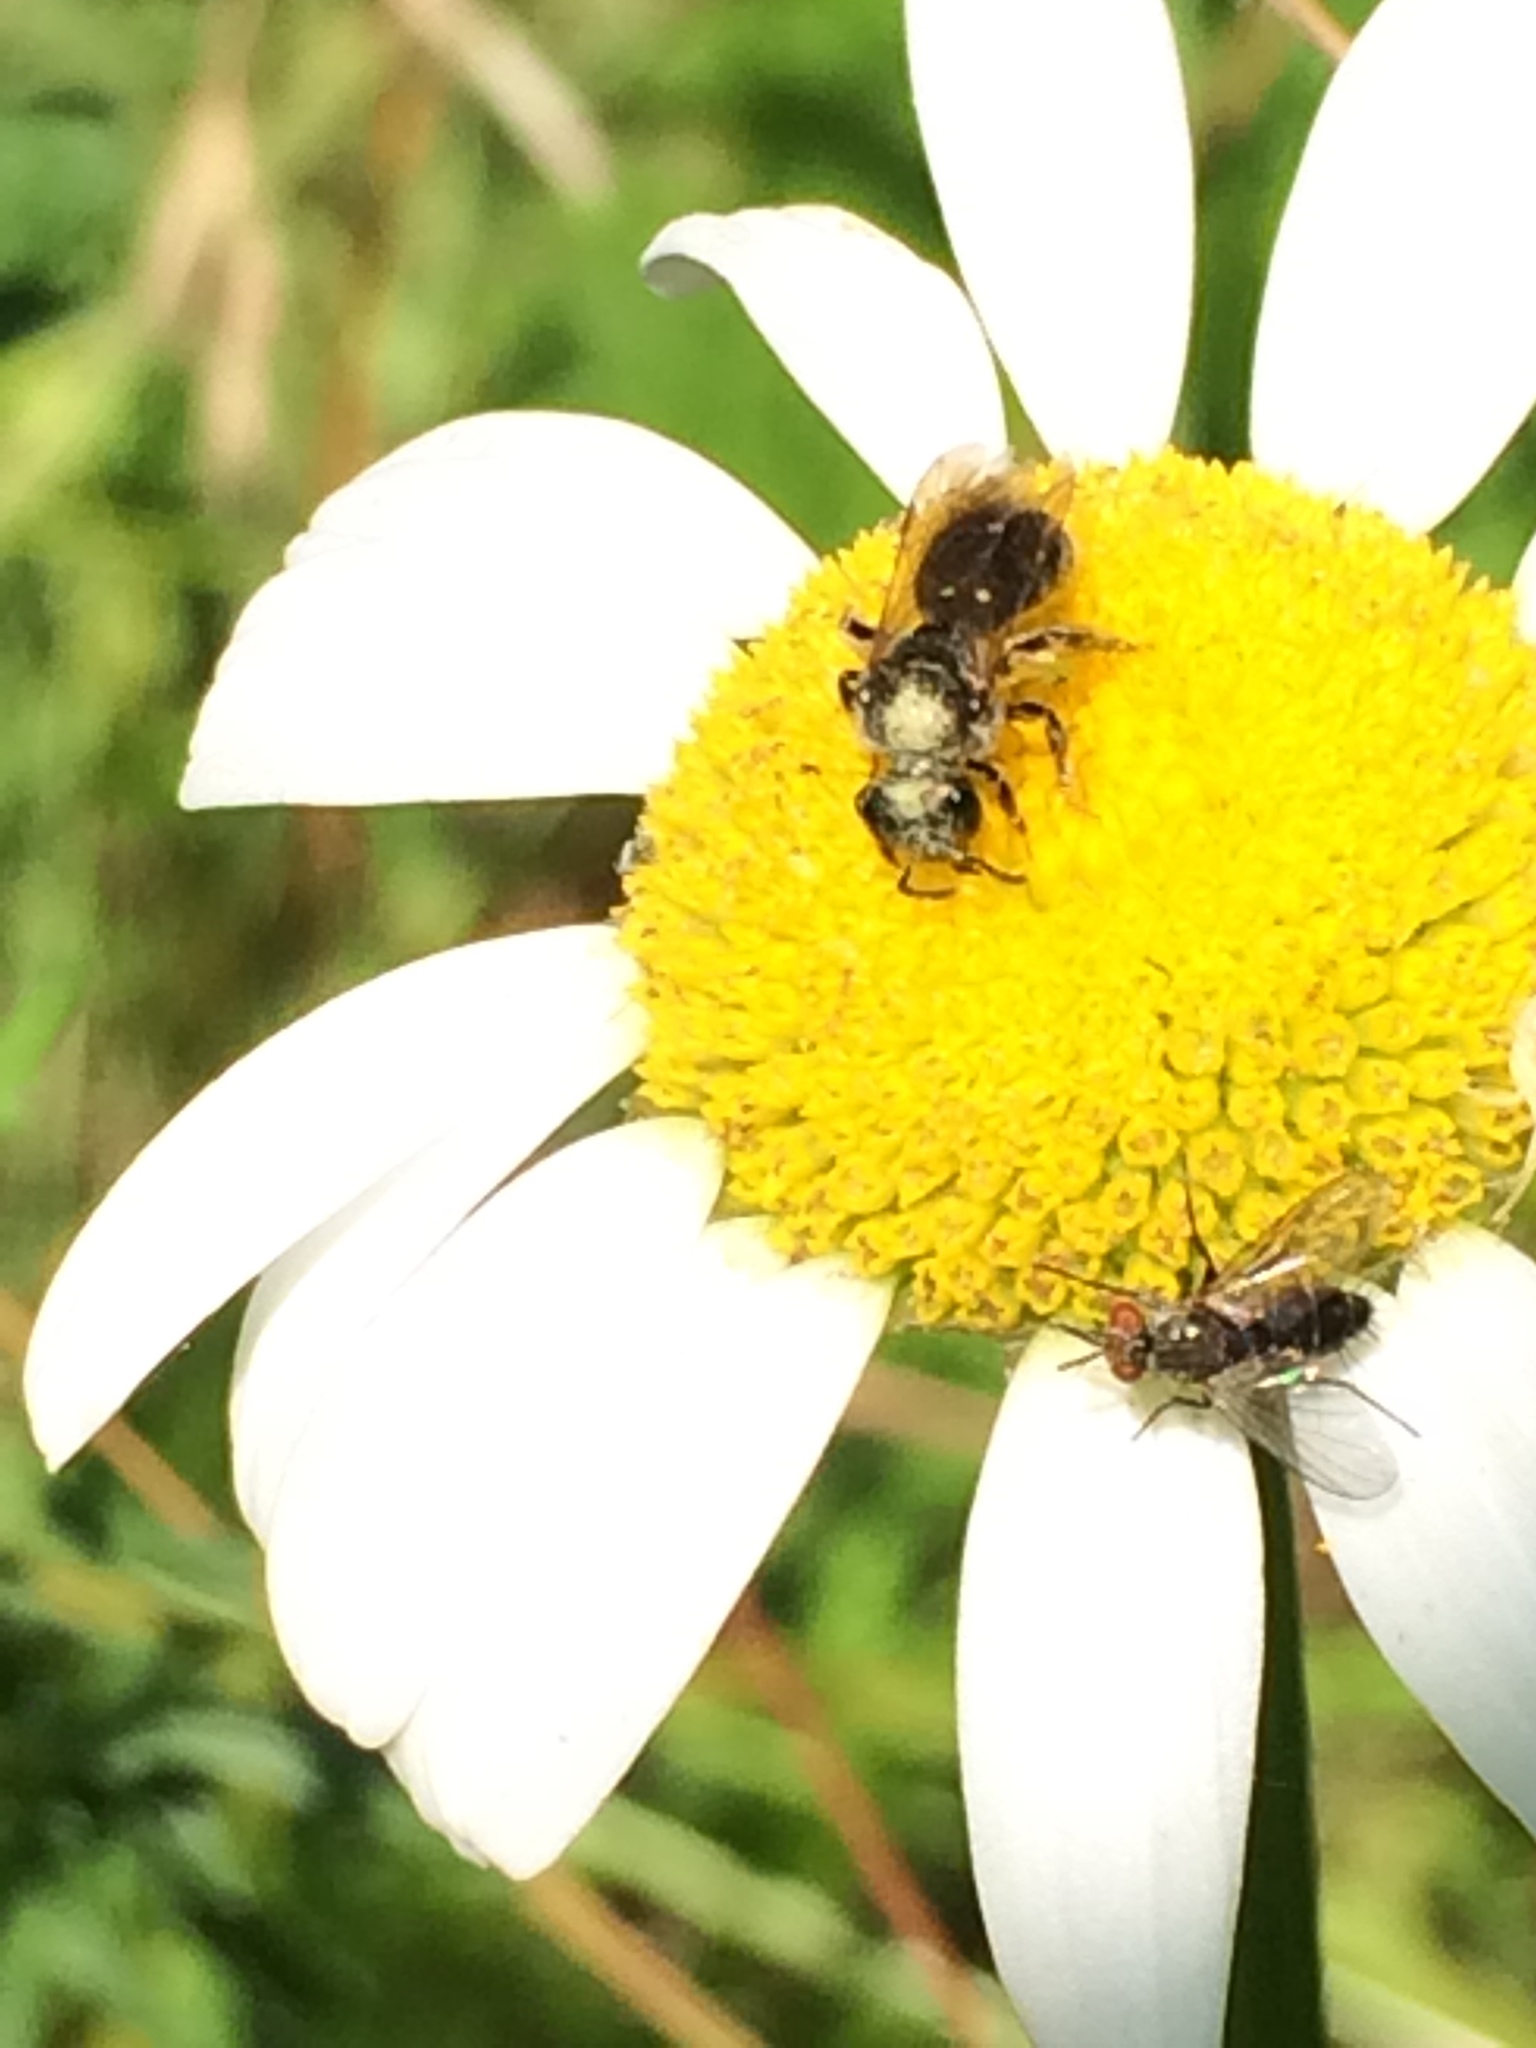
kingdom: Animalia
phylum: Arthropoda
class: Insecta
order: Hymenoptera
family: Halictidae
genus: Dialictus
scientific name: Dialictus
